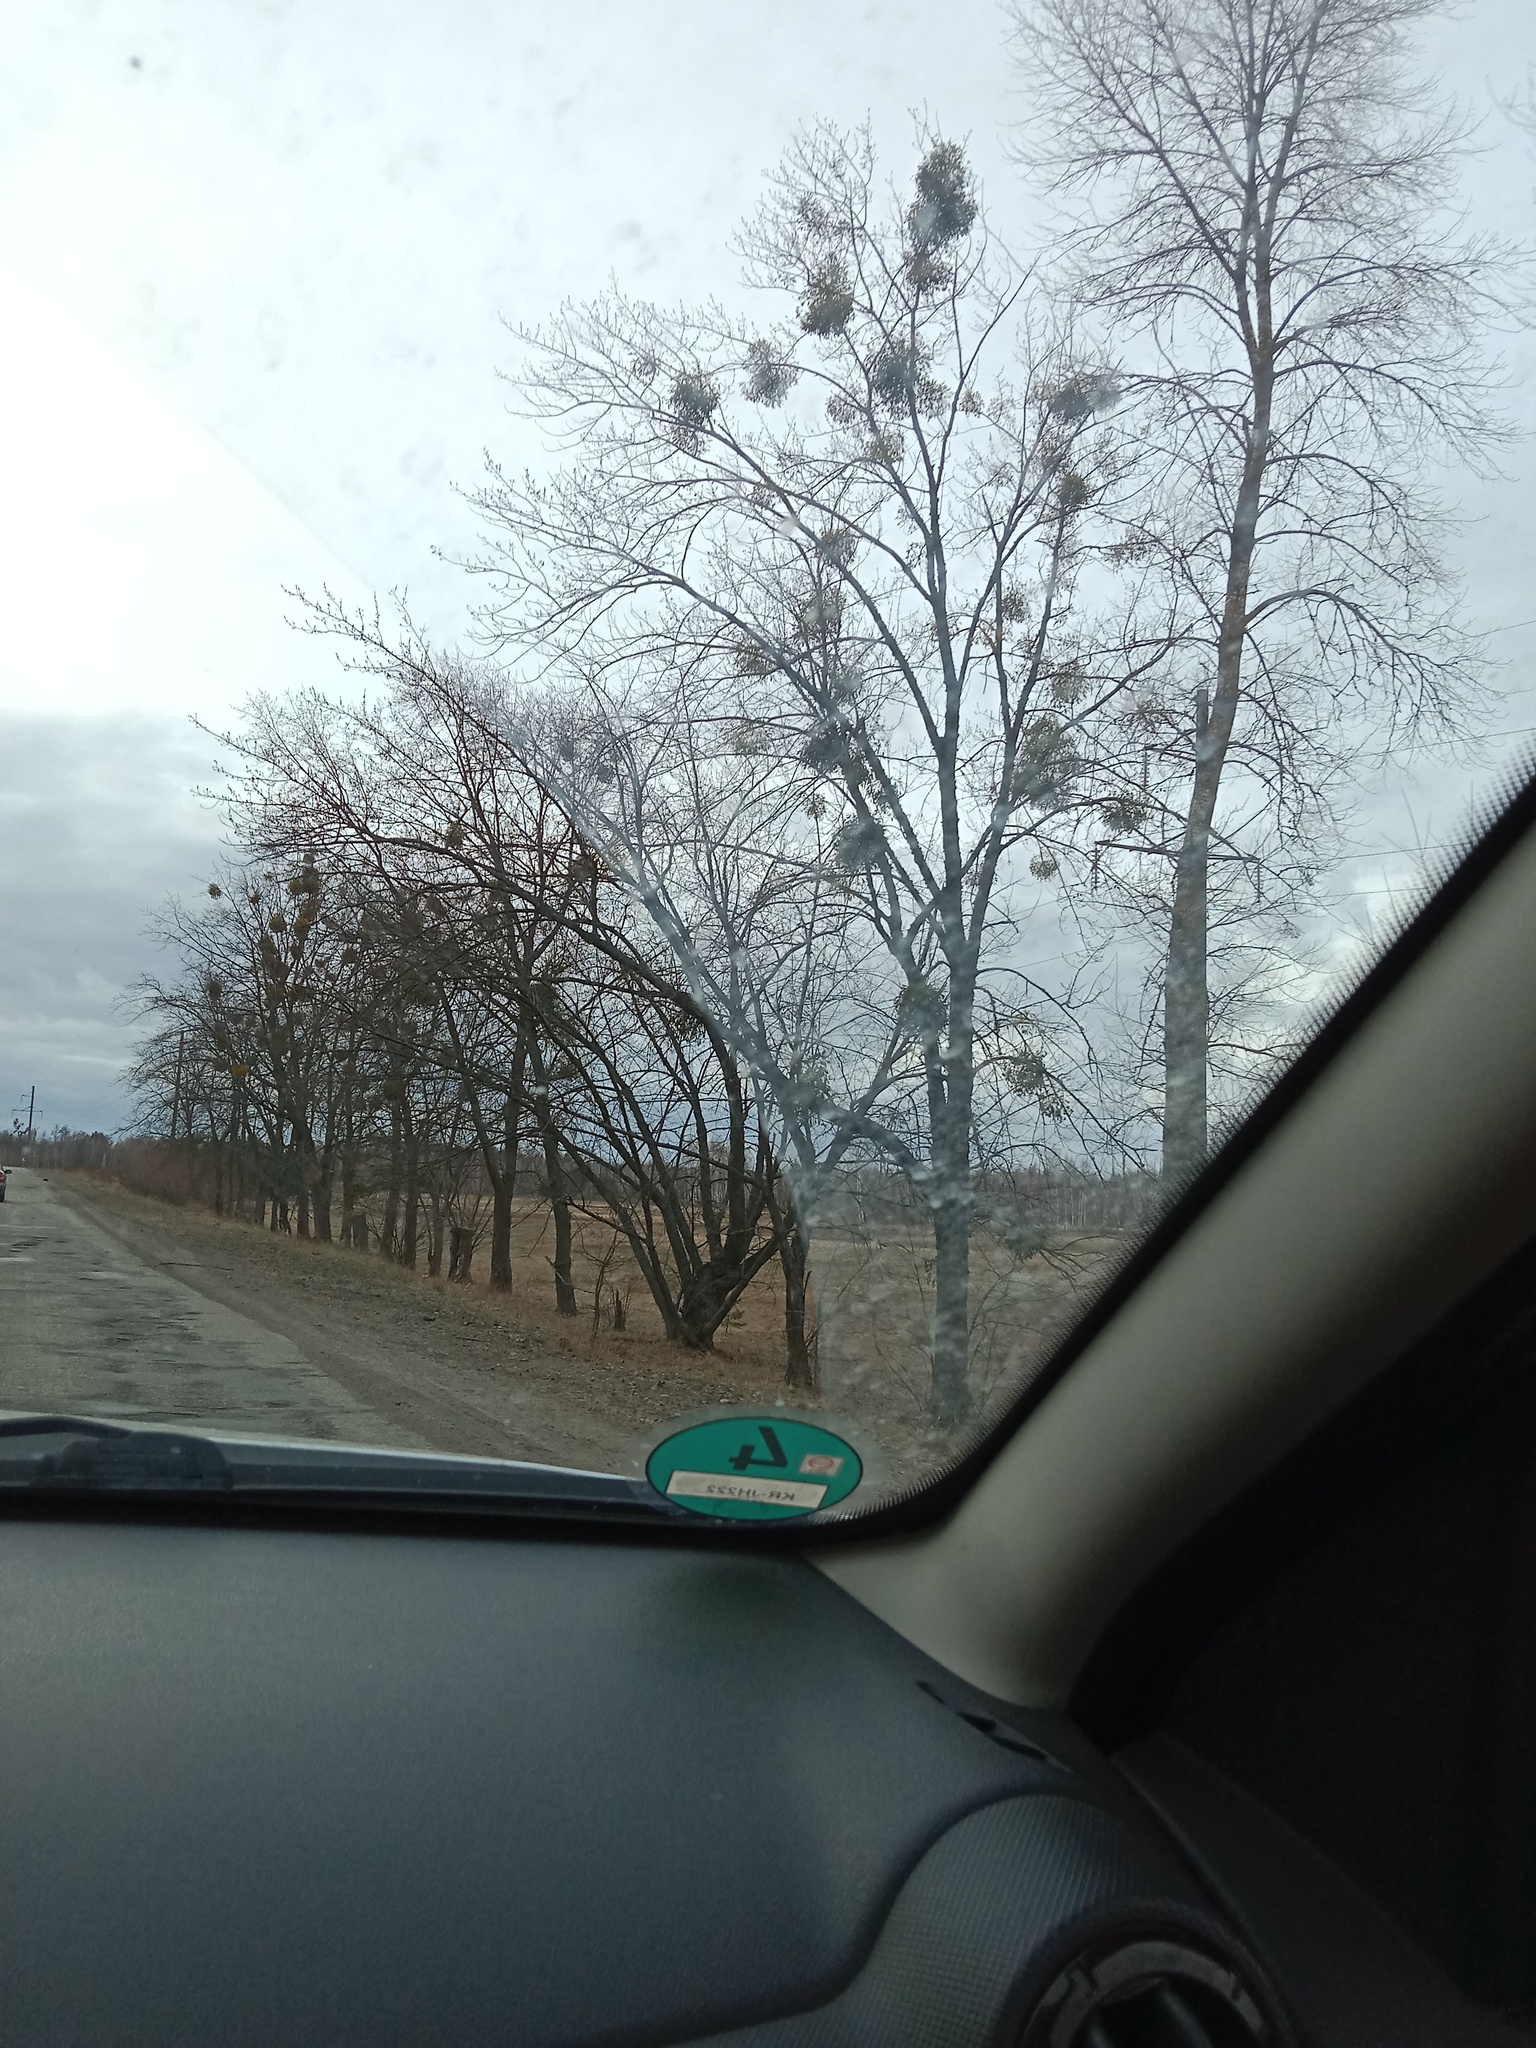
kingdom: Plantae
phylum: Tracheophyta
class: Magnoliopsida
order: Santalales
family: Viscaceae
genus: Viscum
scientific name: Viscum album
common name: Mistletoe
